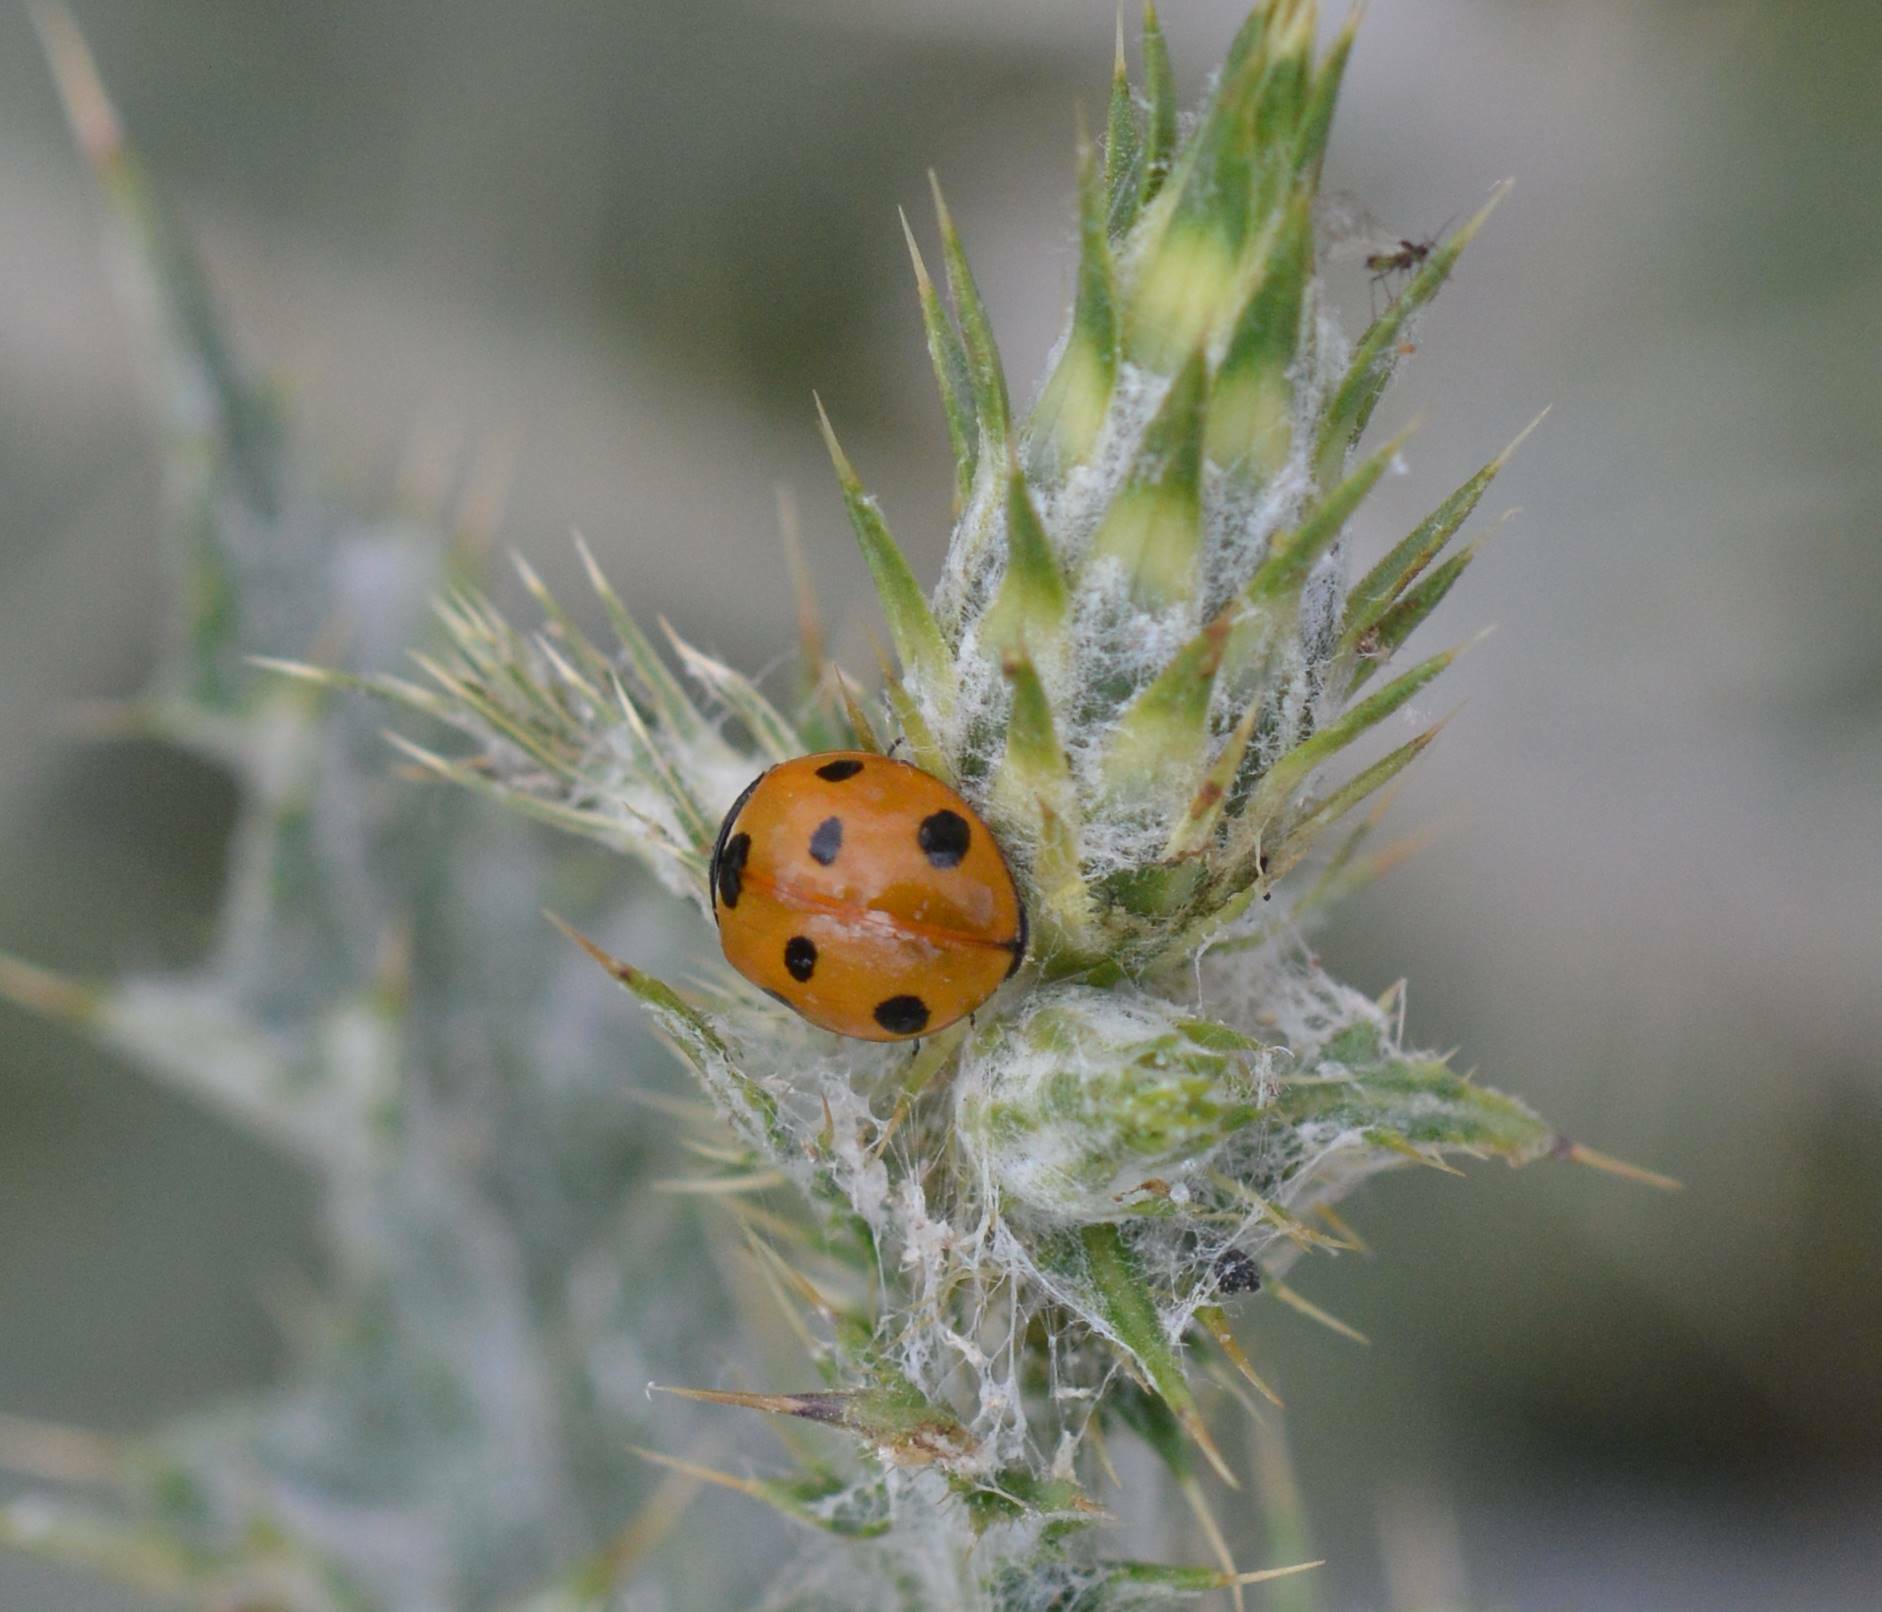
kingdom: Animalia
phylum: Arthropoda
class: Insecta
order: Coleoptera
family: Coccinellidae
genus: Coccinella
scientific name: Coccinella algerica
